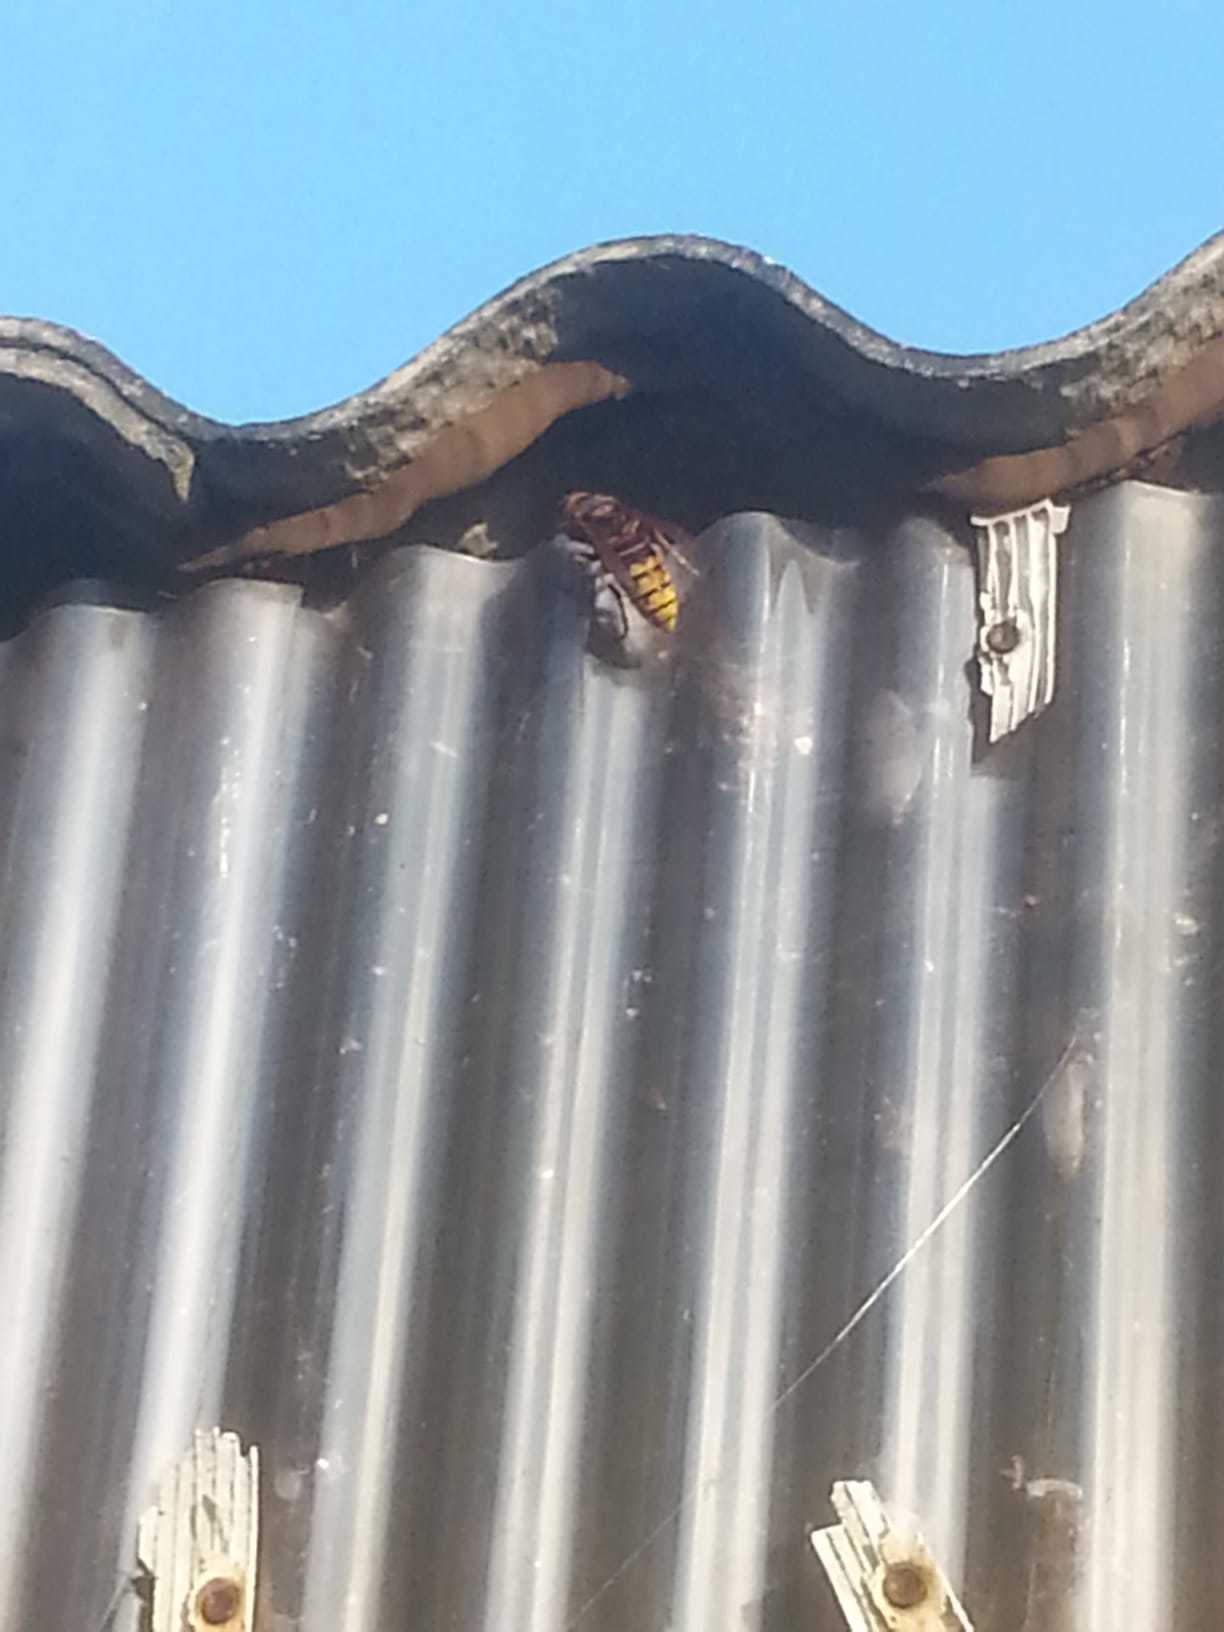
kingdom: Animalia
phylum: Arthropoda
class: Insecta
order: Hymenoptera
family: Vespidae
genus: Vespa
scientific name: Vespa crabro
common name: Hornet
